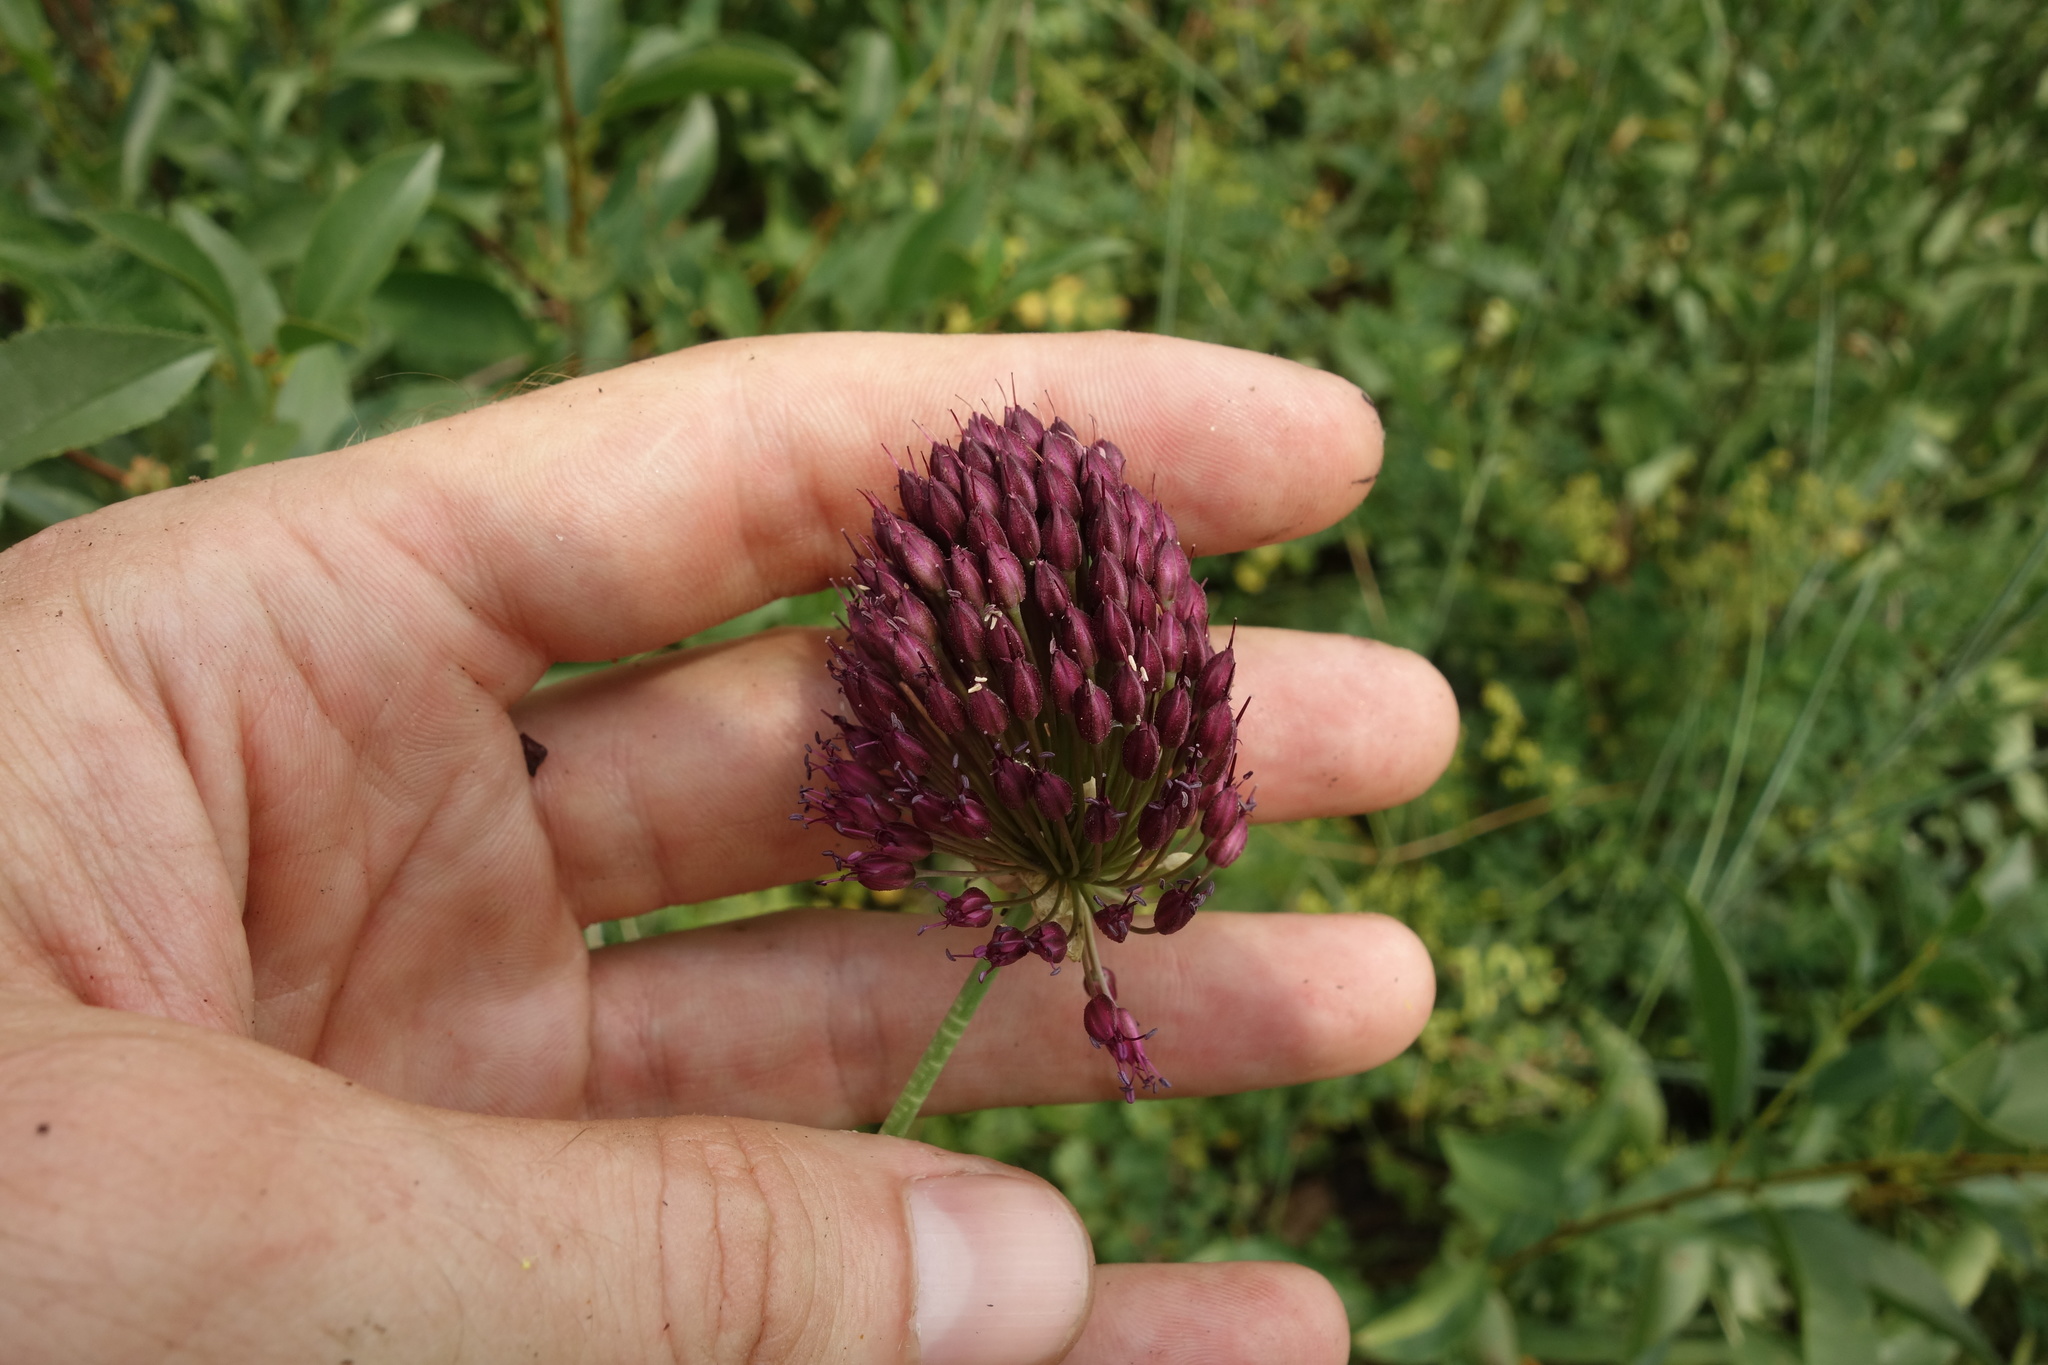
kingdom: Plantae
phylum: Tracheophyta
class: Liliopsida
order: Asparagales
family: Amaryllidaceae
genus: Allium
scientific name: Allium sphaerocephalon
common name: Round-headed leek
